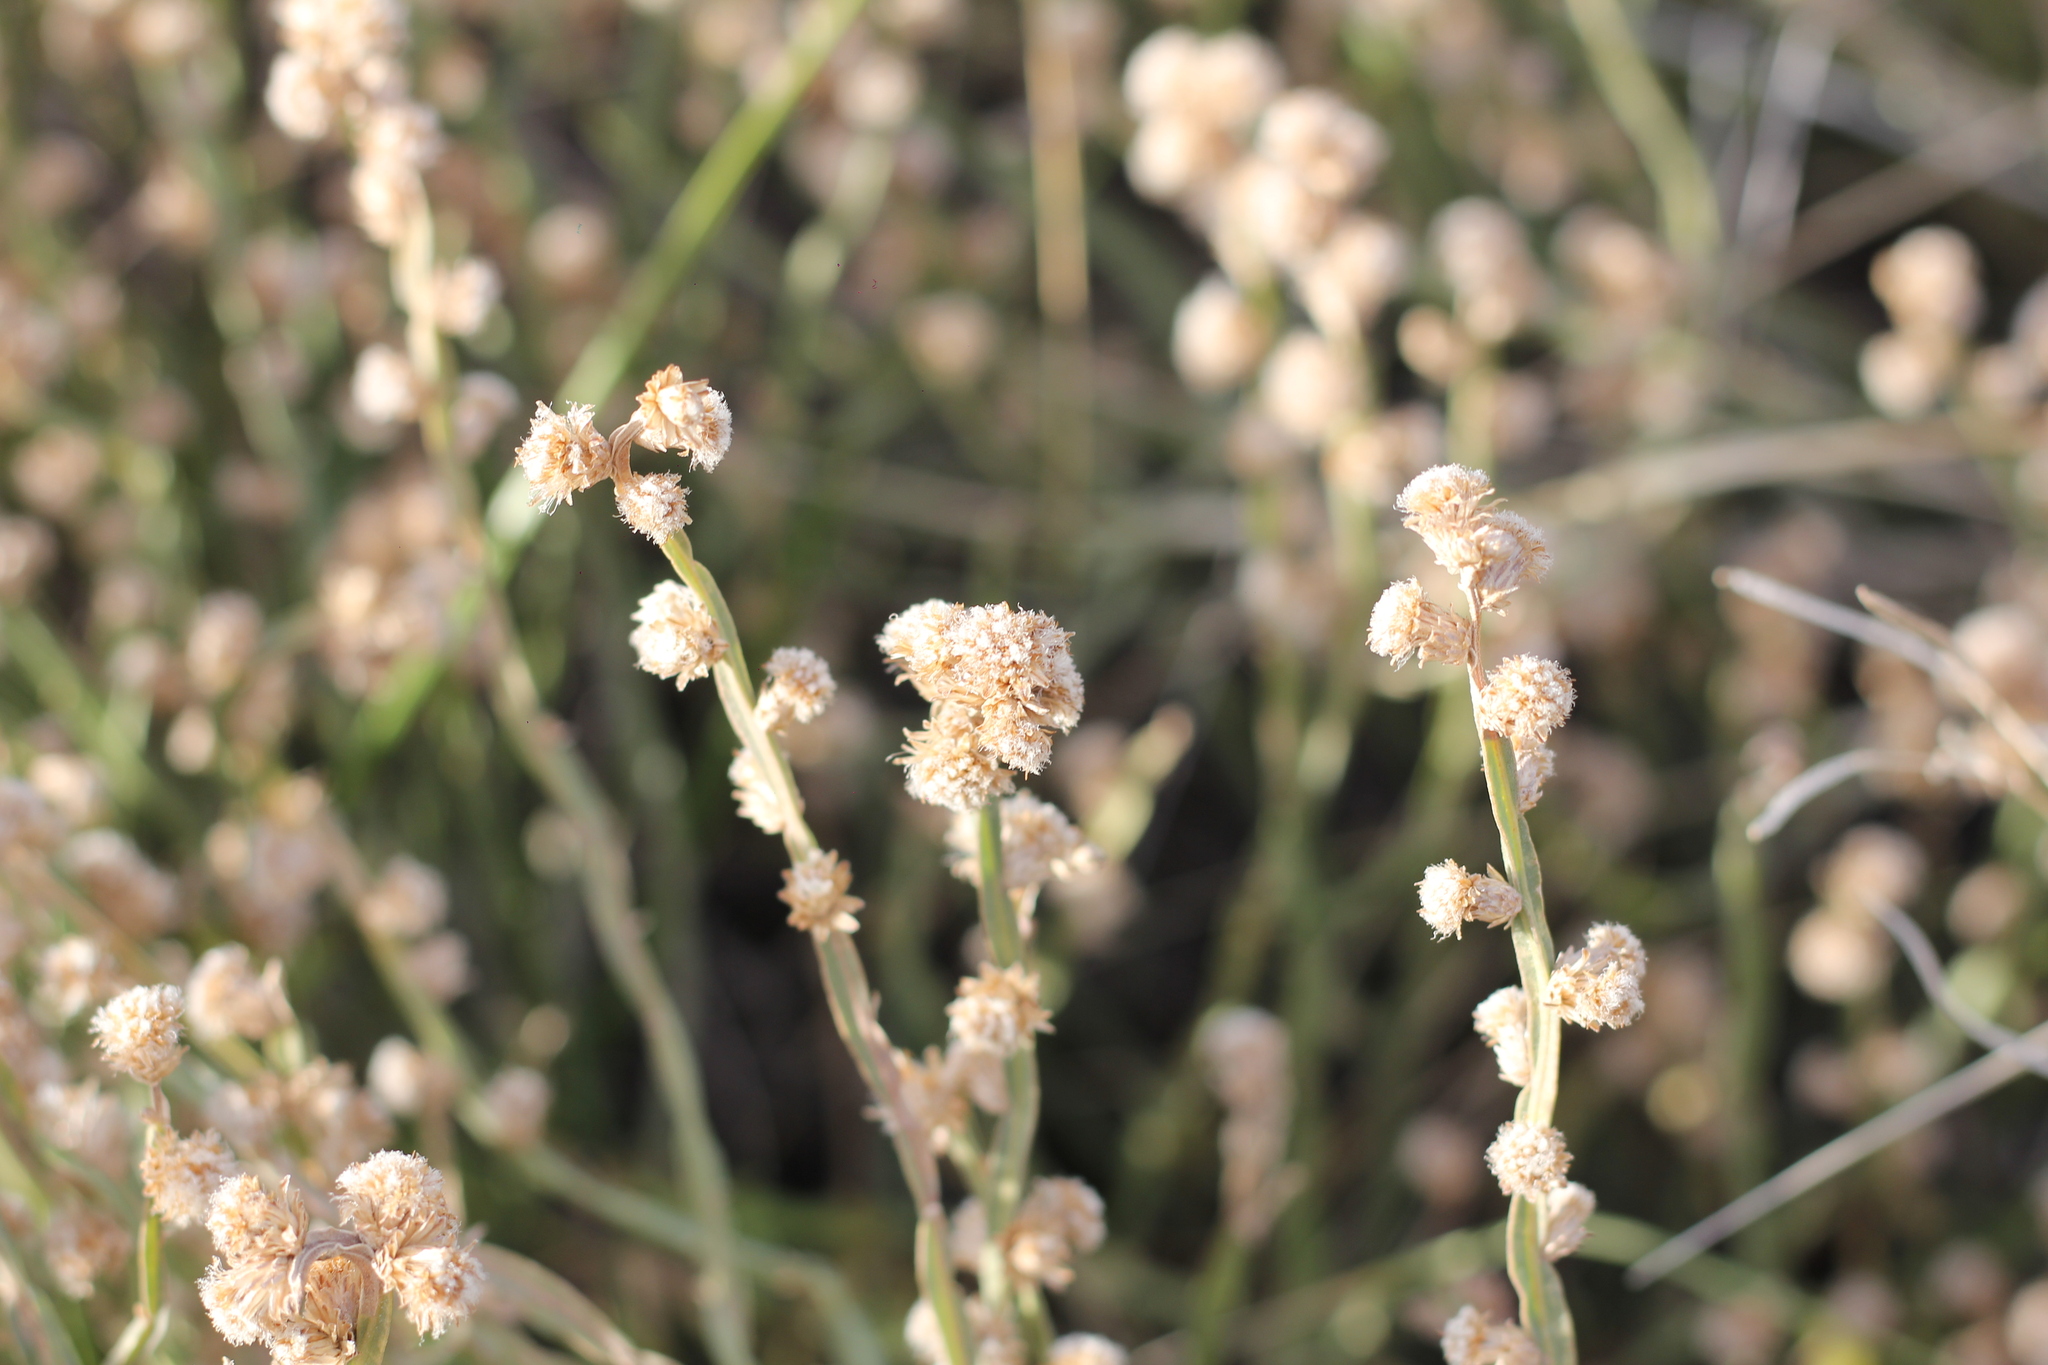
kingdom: Plantae
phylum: Tracheophyta
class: Magnoliopsida
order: Asterales
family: Asteraceae
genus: Baccharis
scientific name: Baccharis crispa
